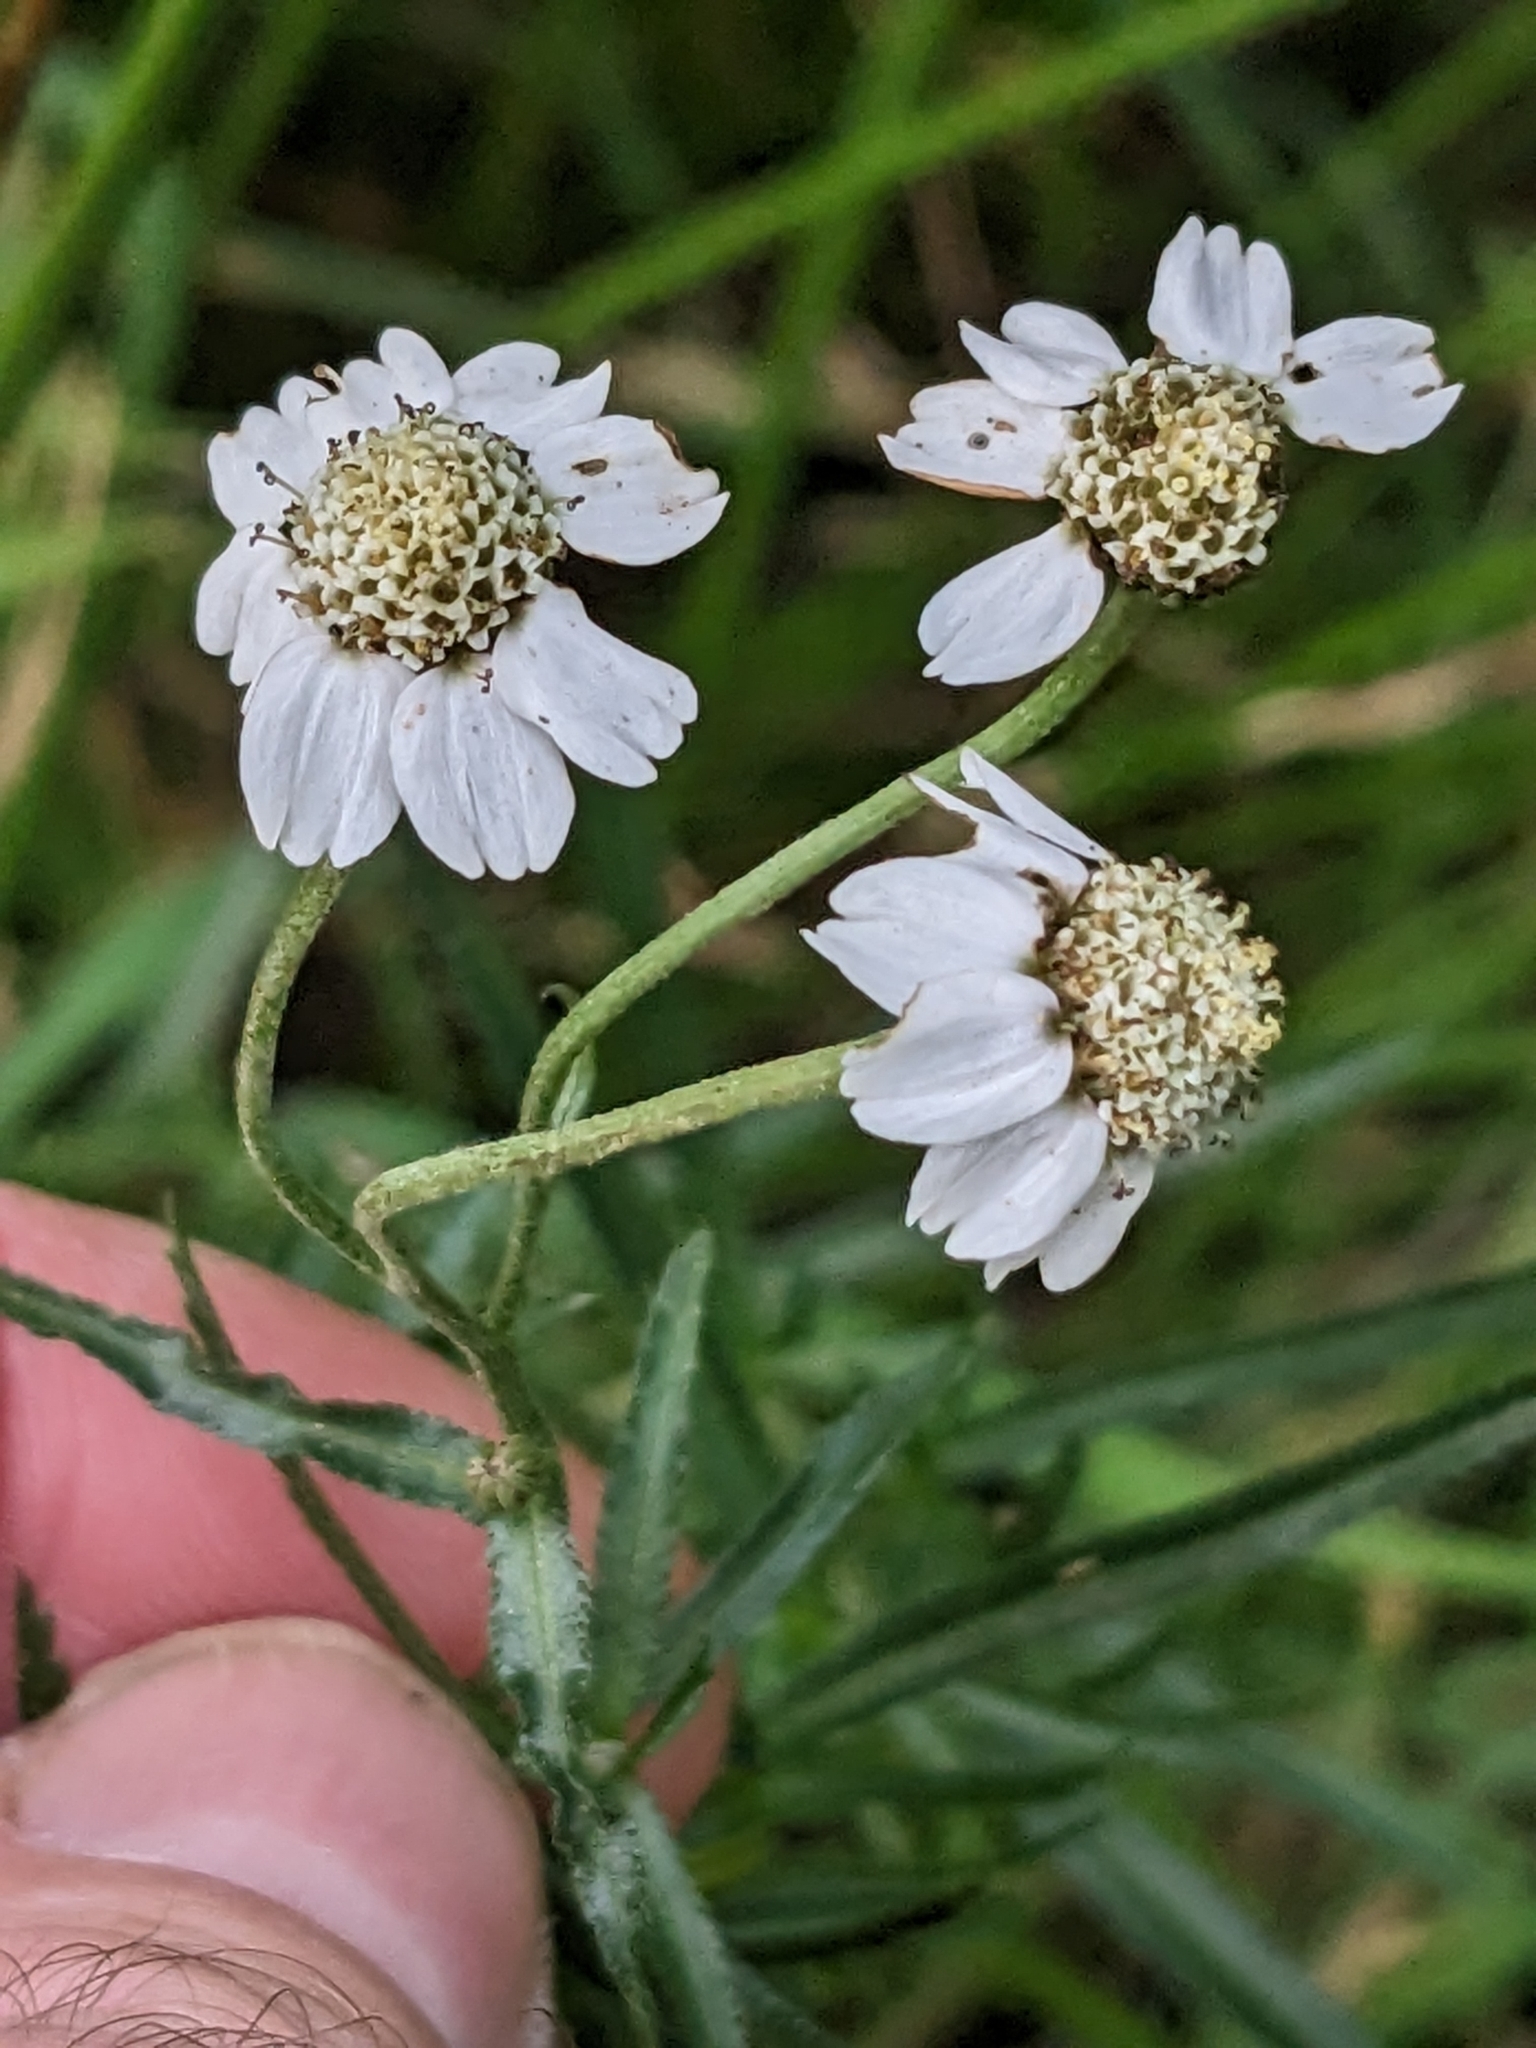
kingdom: Plantae
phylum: Tracheophyta
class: Magnoliopsida
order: Asterales
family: Asteraceae
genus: Achillea
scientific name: Achillea ptarmica
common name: Sneezeweed
